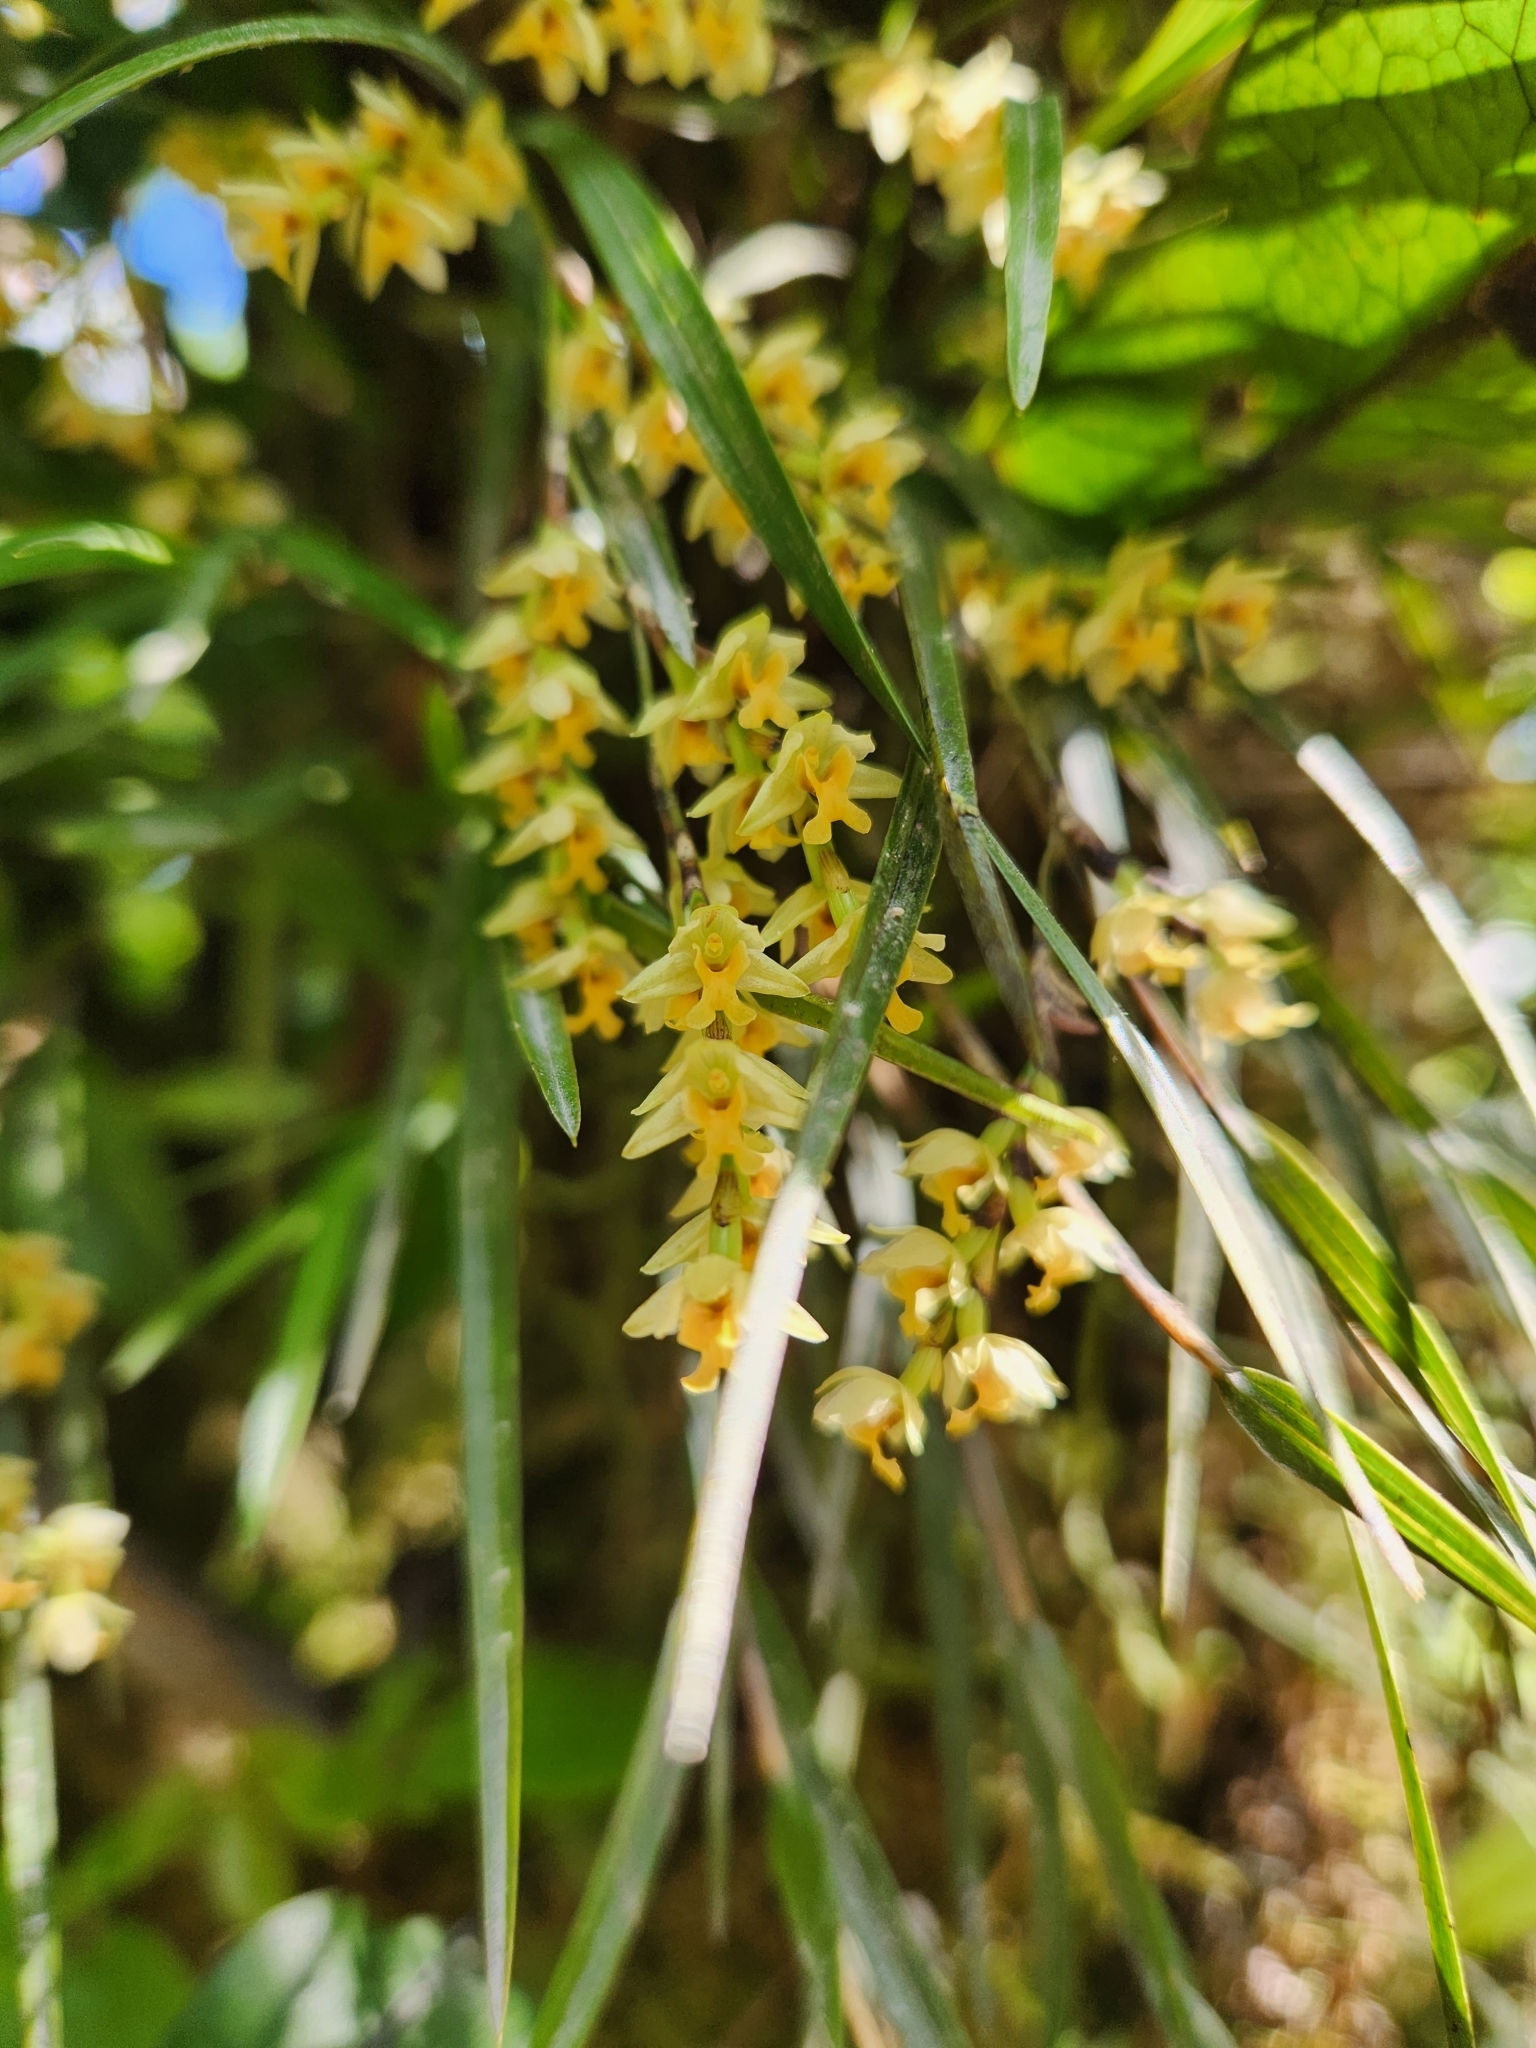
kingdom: Plantae
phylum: Tracheophyta
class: Liliopsida
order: Asparagales
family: Orchidaceae
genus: Earina
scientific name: Earina mucronata
